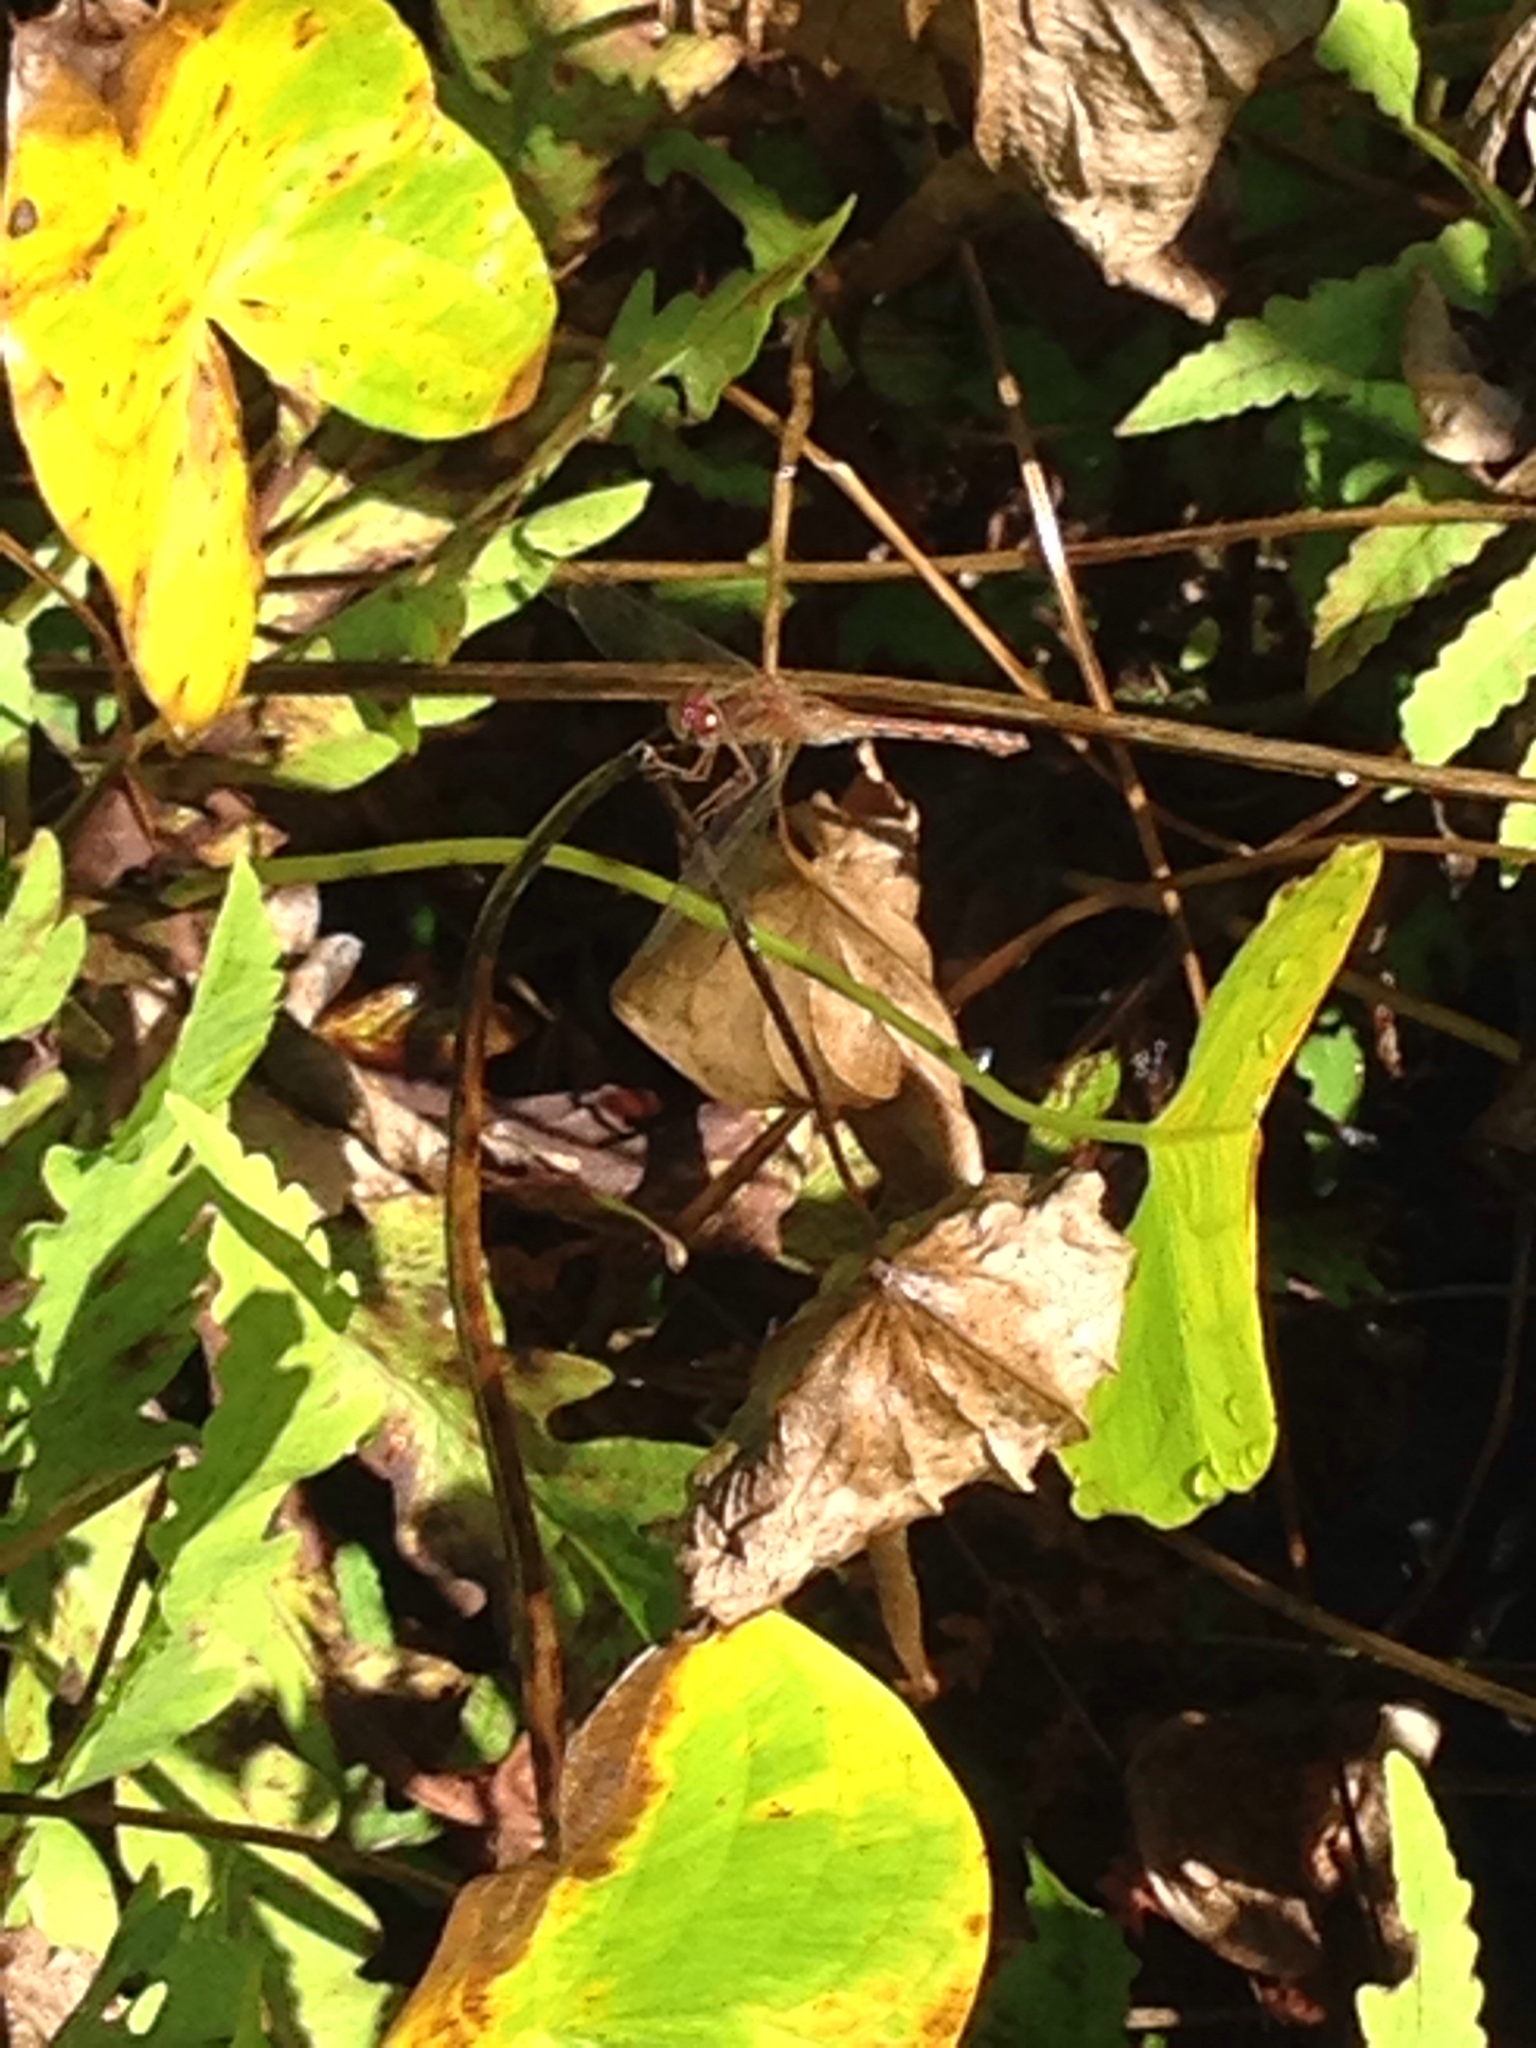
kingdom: Animalia
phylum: Arthropoda
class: Insecta
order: Odonata
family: Libellulidae
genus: Sympetrum
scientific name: Sympetrum vicinum
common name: Autumn meadowhawk
